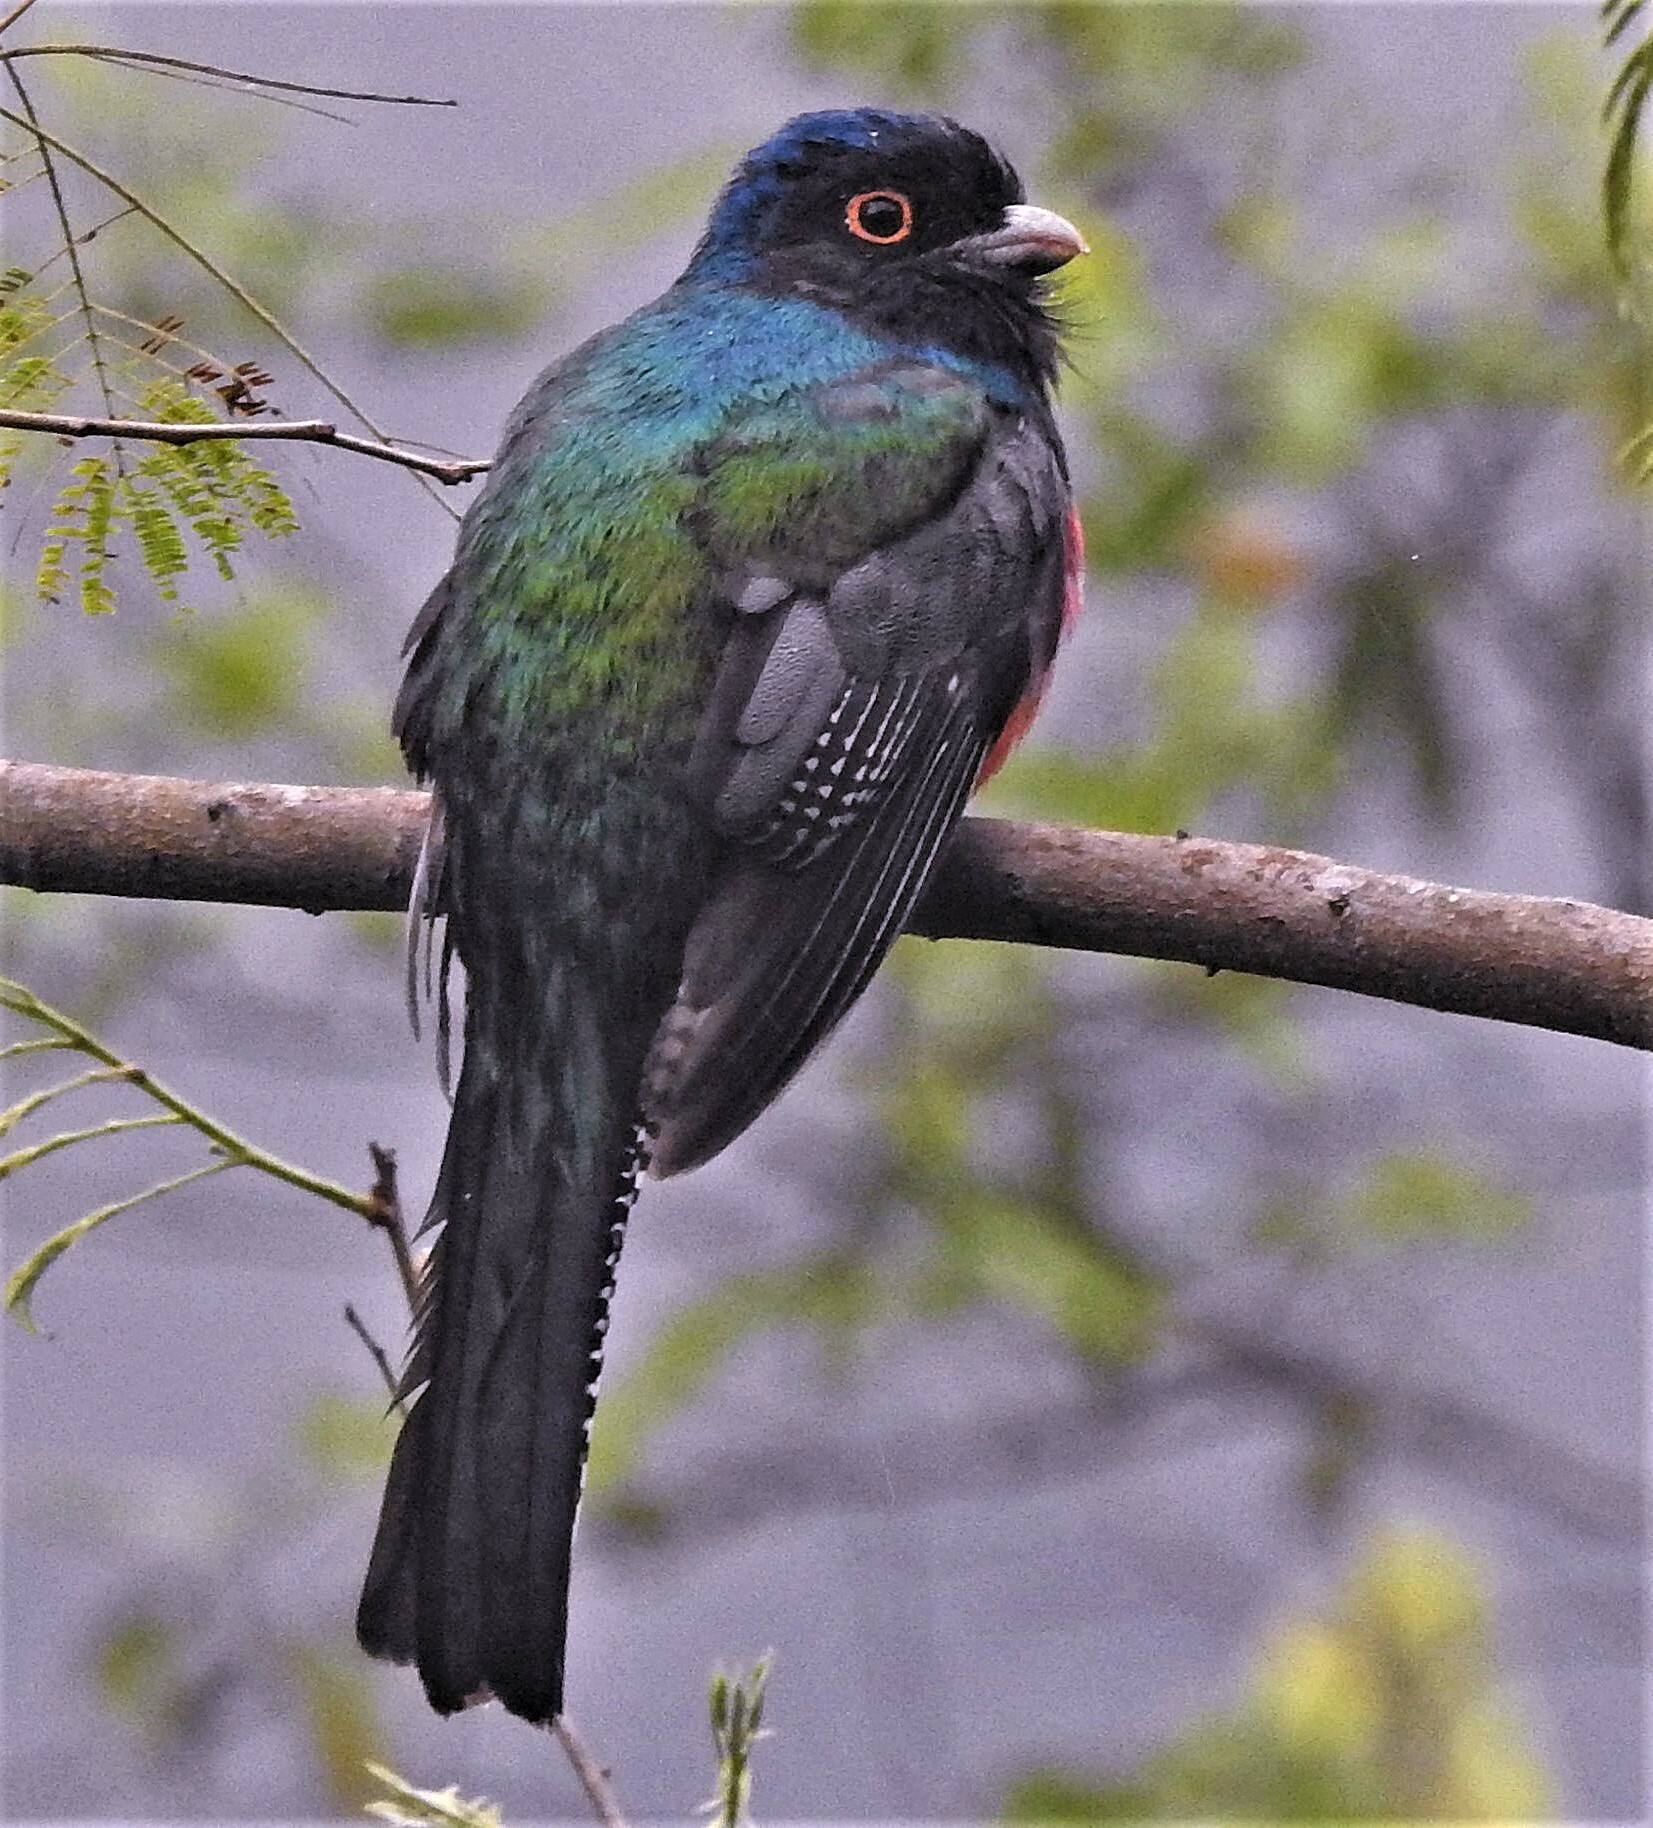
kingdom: Animalia
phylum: Chordata
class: Aves
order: Trogoniformes
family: Trogonidae
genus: Trogon
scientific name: Trogon curucui
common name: Blue-crowned trogon
